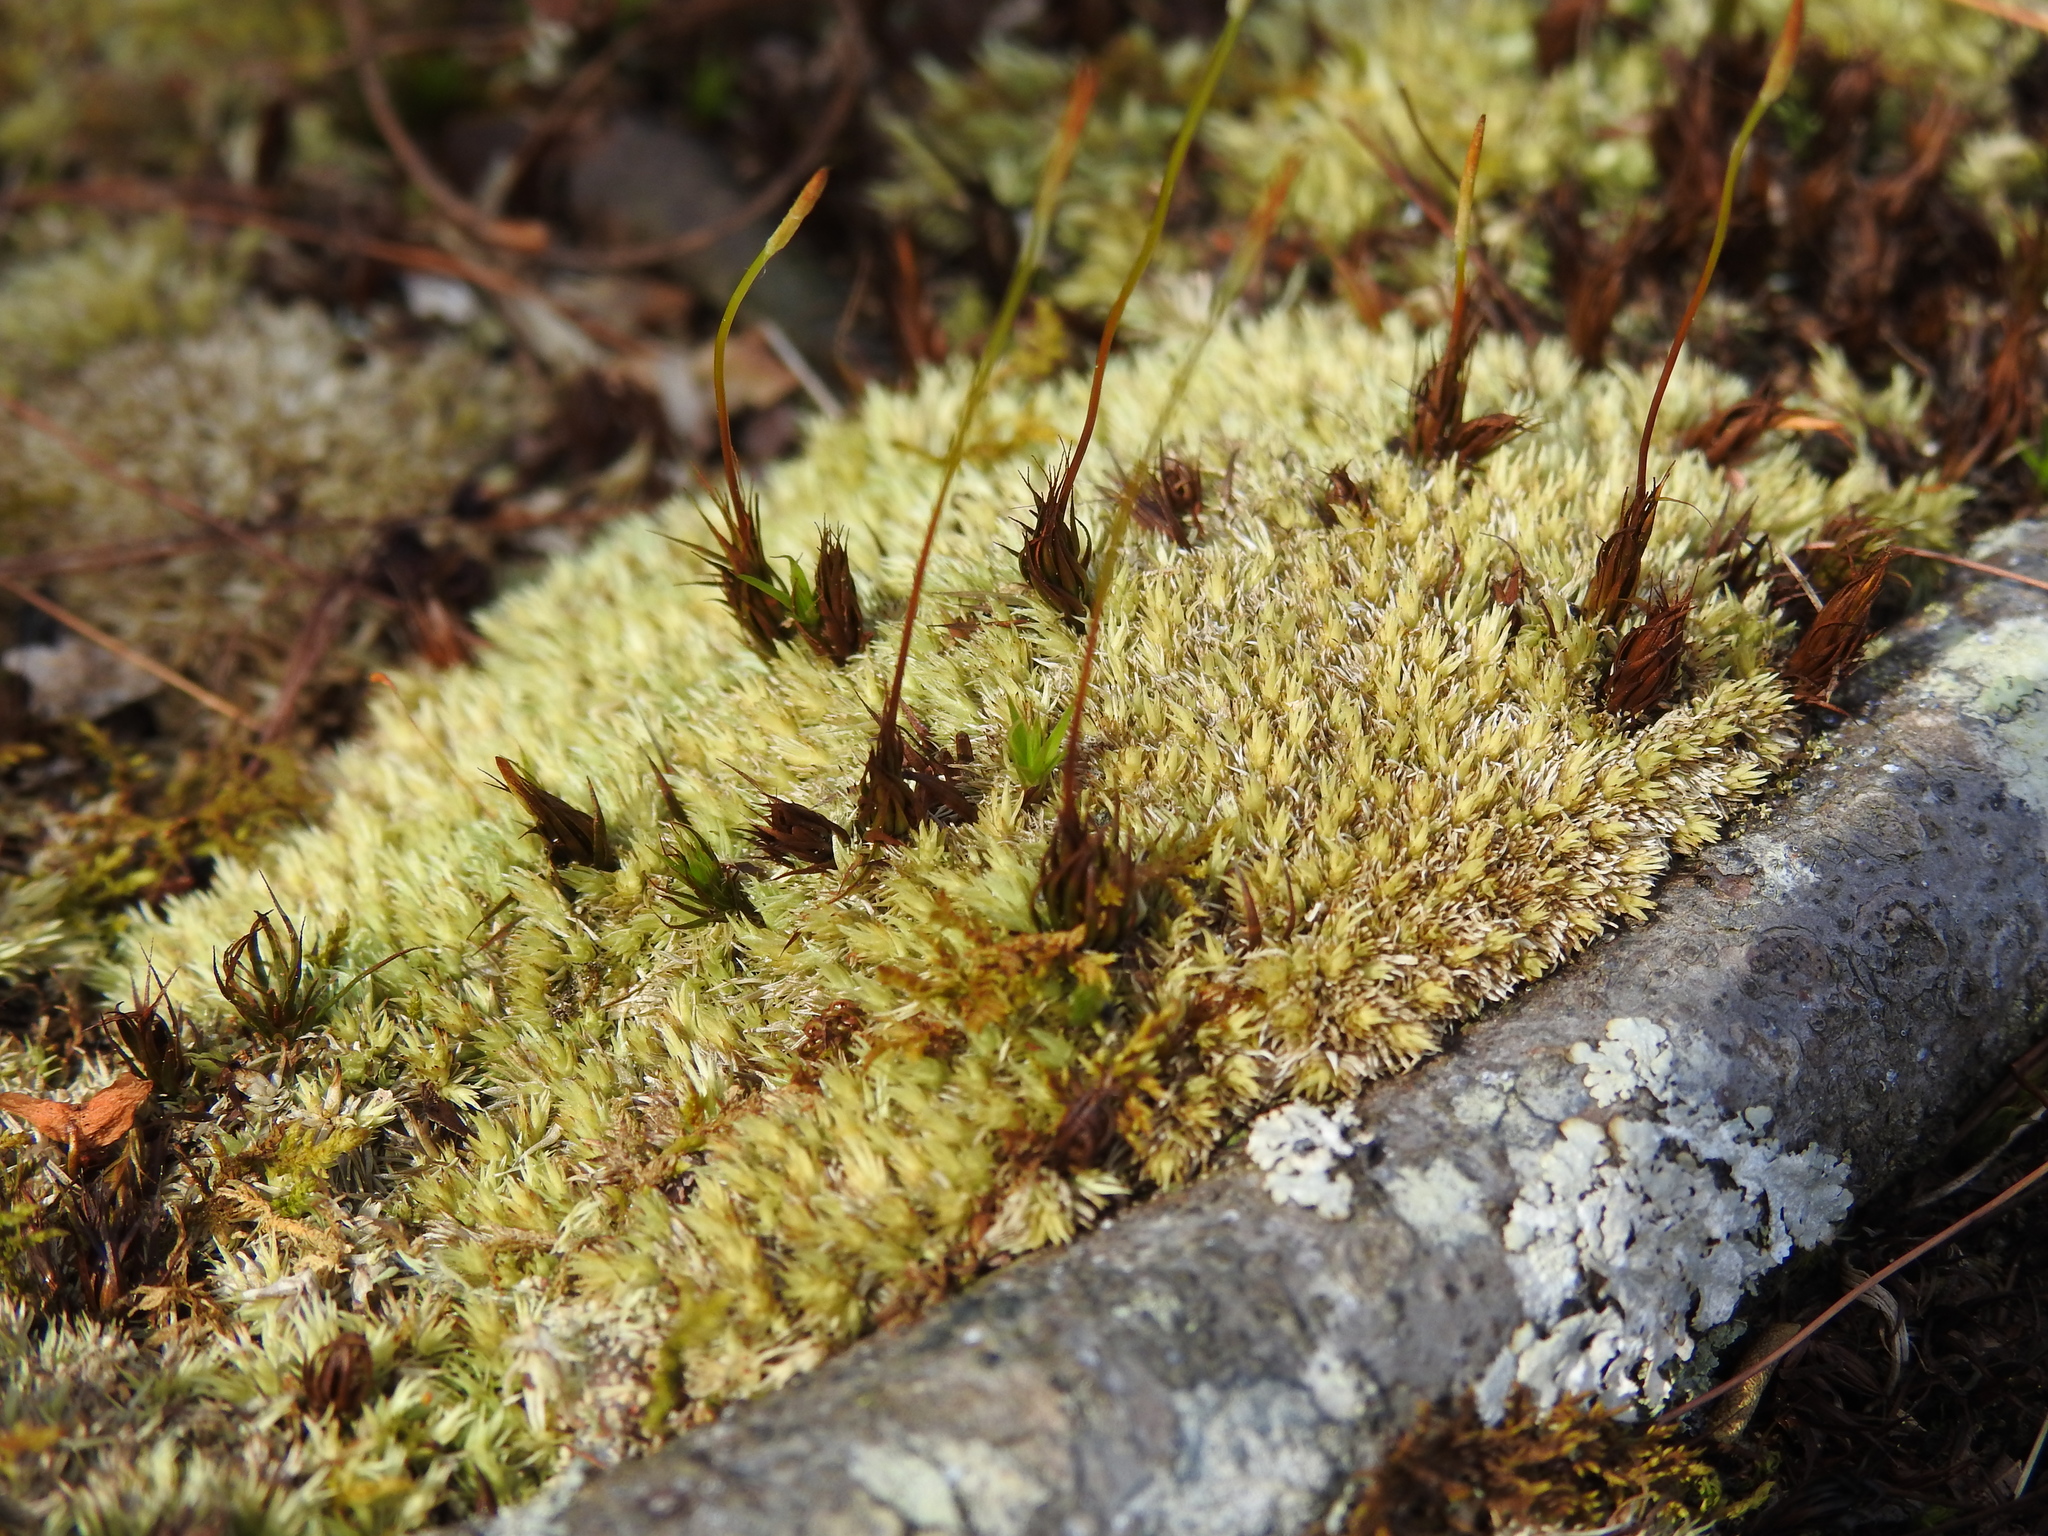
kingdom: Plantae
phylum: Bryophyta
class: Bryopsida
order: Dicranales
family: Leucobryaceae
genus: Leucobryum
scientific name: Leucobryum albidum
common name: White moss
